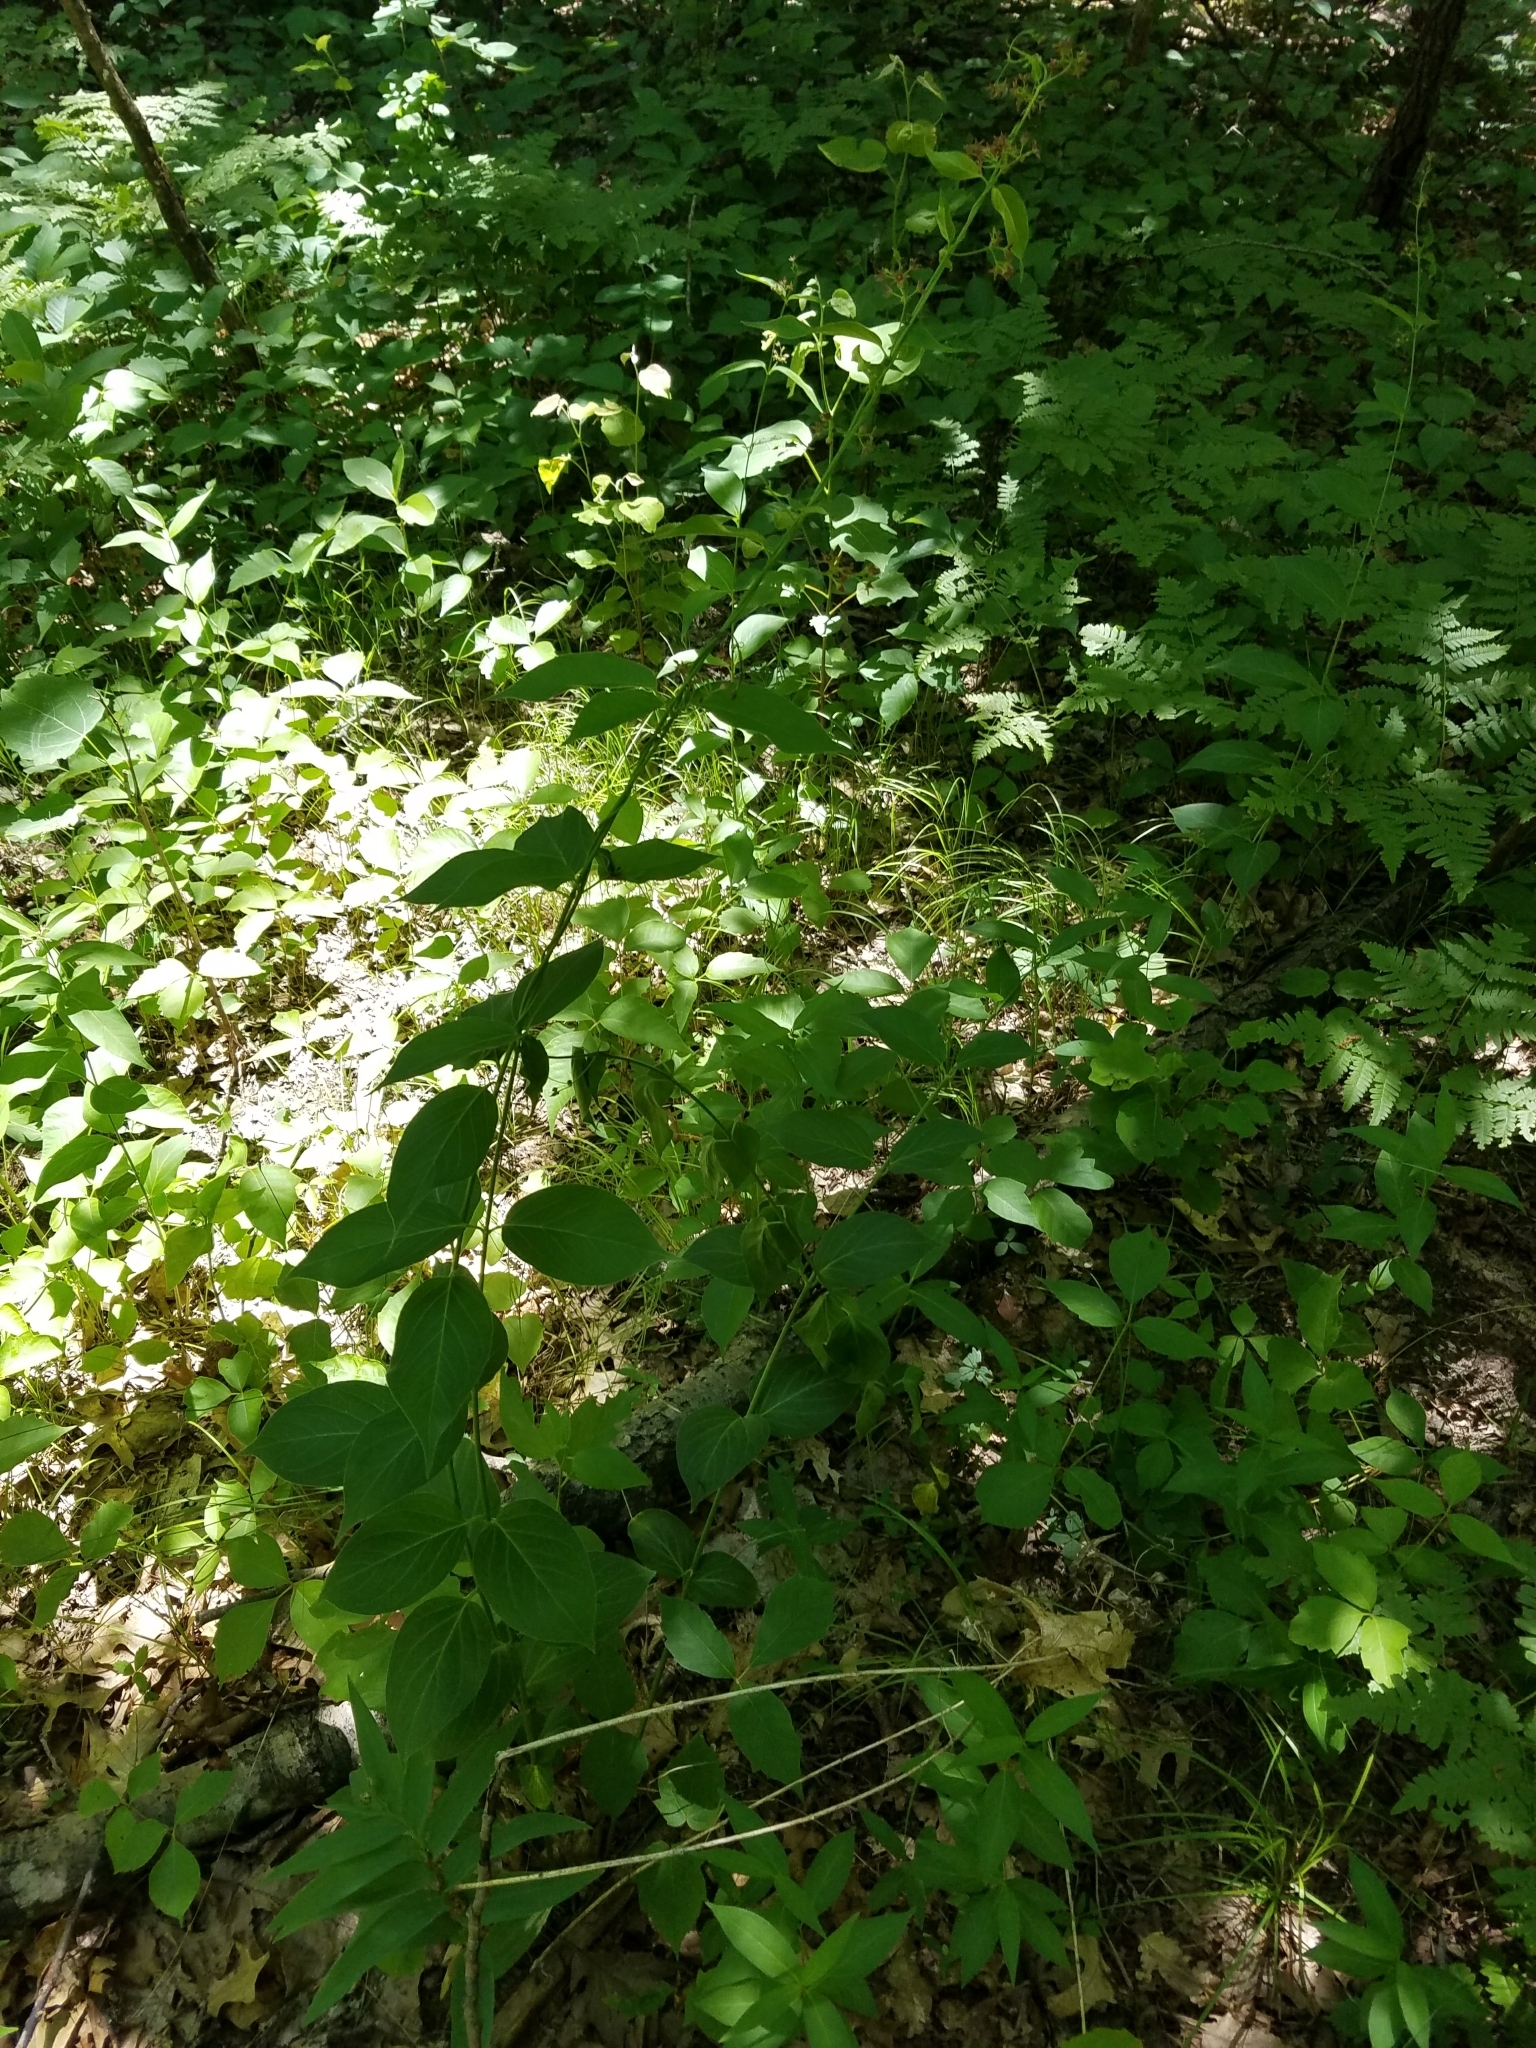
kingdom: Plantae
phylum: Tracheophyta
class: Magnoliopsida
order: Gentianales
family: Apocynaceae
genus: Vincetoxicum
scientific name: Vincetoxicum rossicum
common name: Dog-strangling vine
